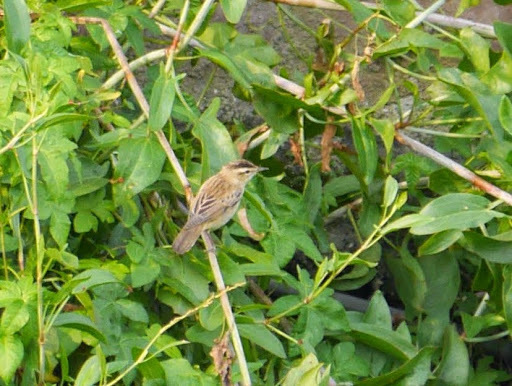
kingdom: Animalia
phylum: Chordata
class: Aves
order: Passeriformes
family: Acrocephalidae
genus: Acrocephalus
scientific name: Acrocephalus schoenobaenus
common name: Sedge warbler
